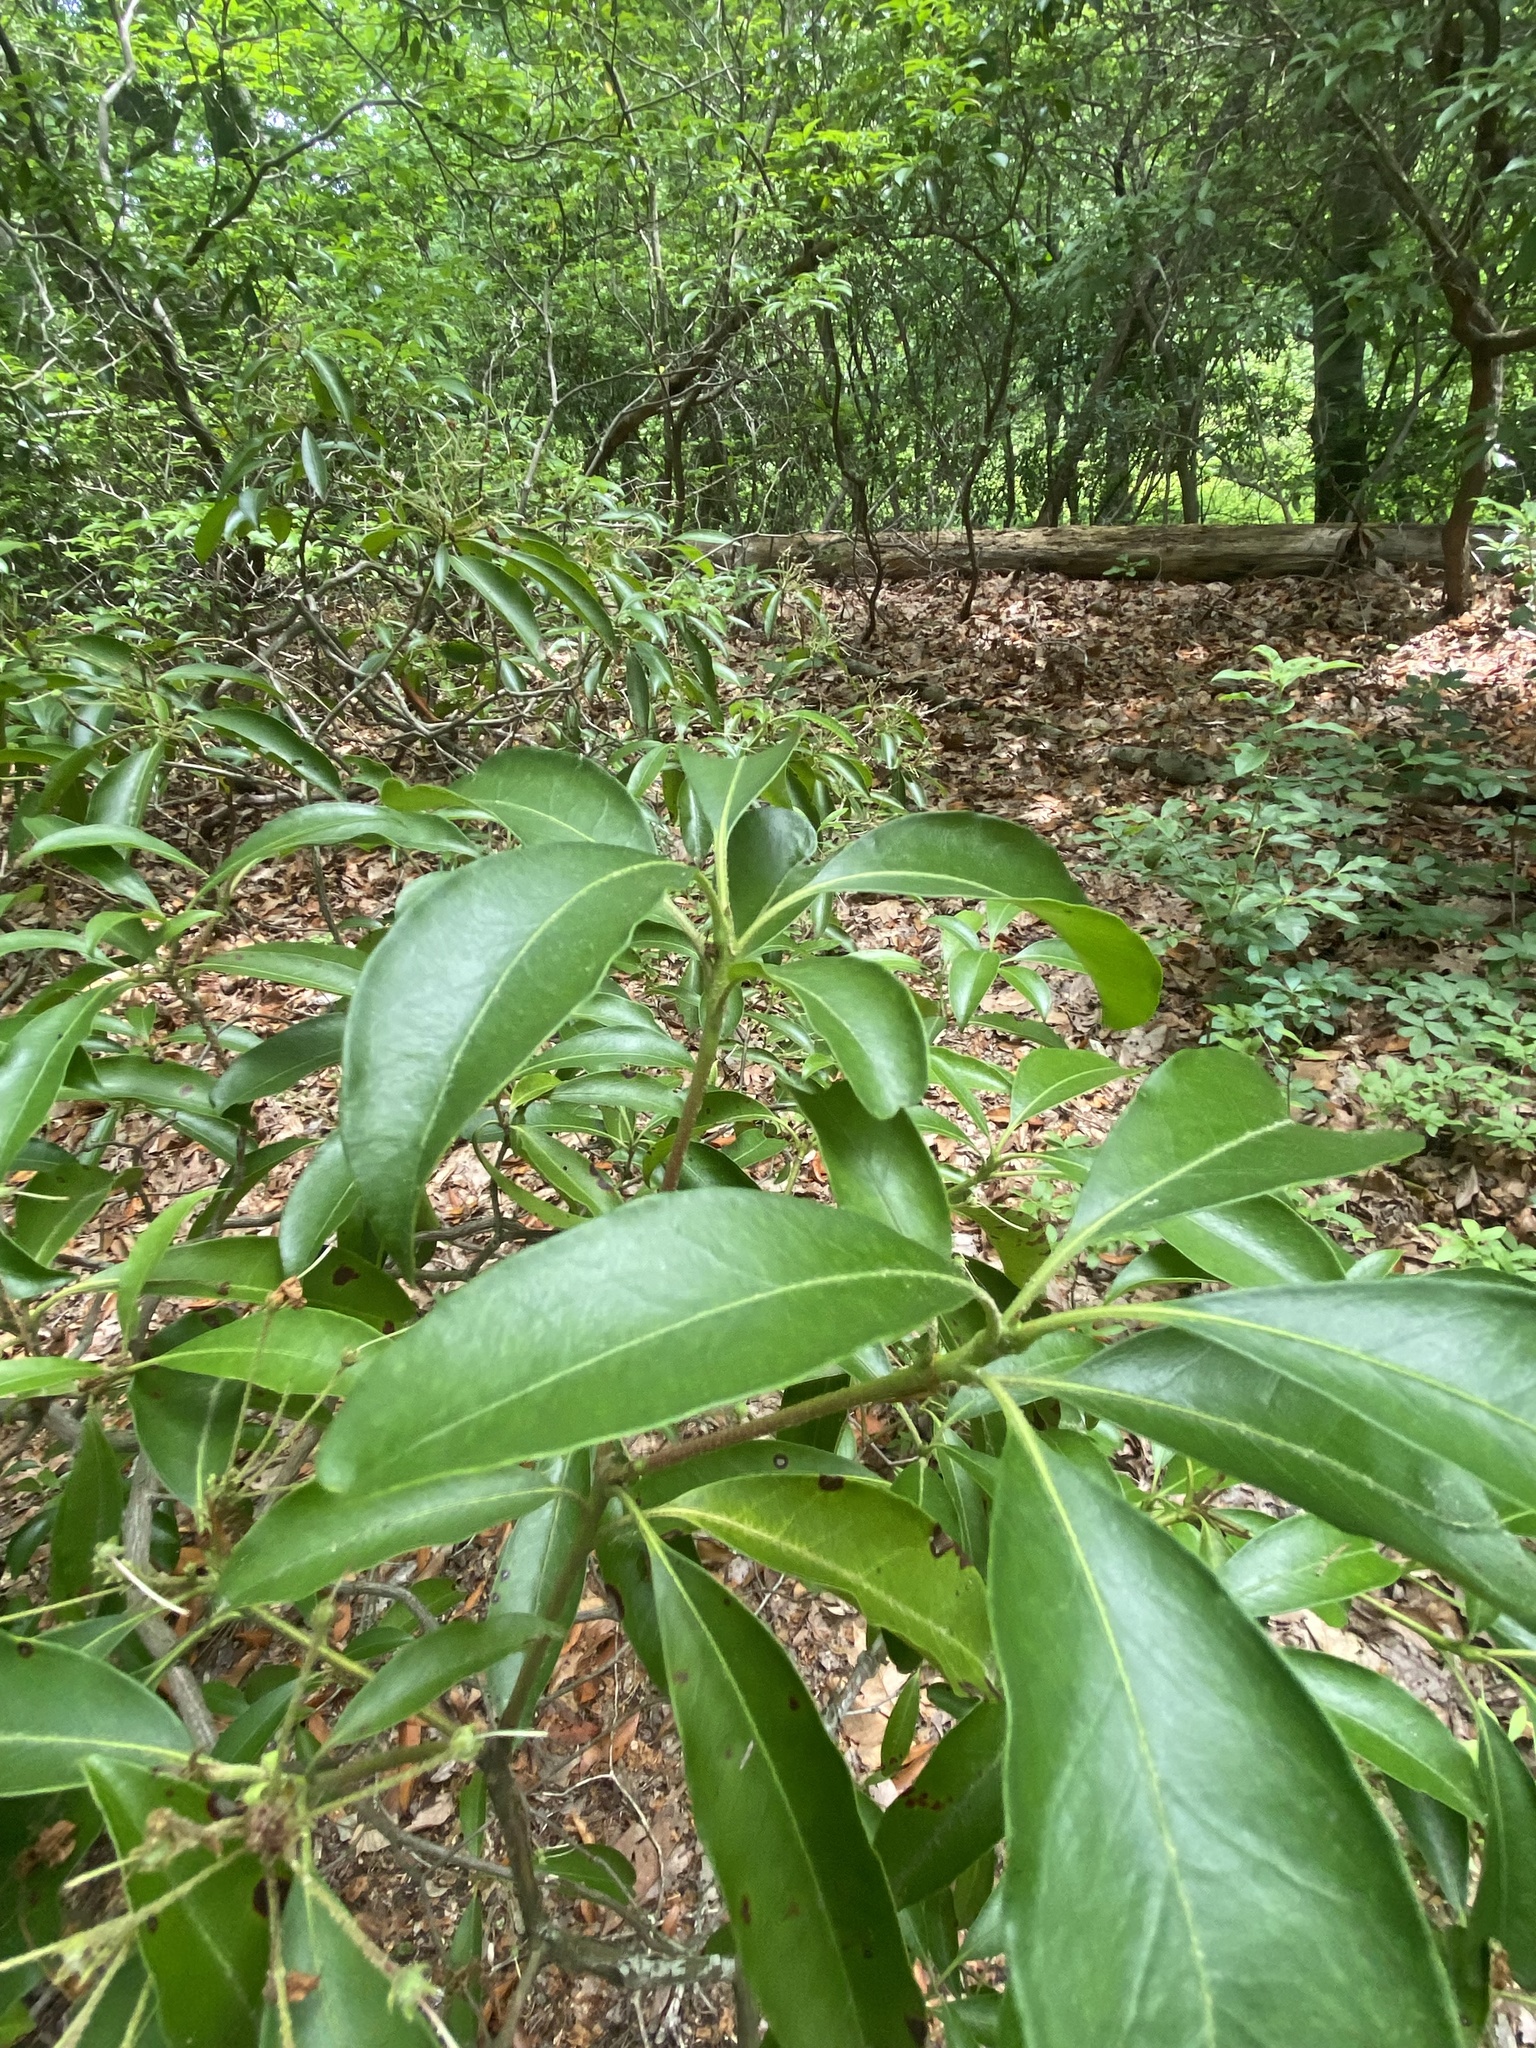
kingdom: Plantae
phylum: Tracheophyta
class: Magnoliopsida
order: Ericales
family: Ericaceae
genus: Kalmia
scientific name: Kalmia latifolia
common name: Mountain-laurel
